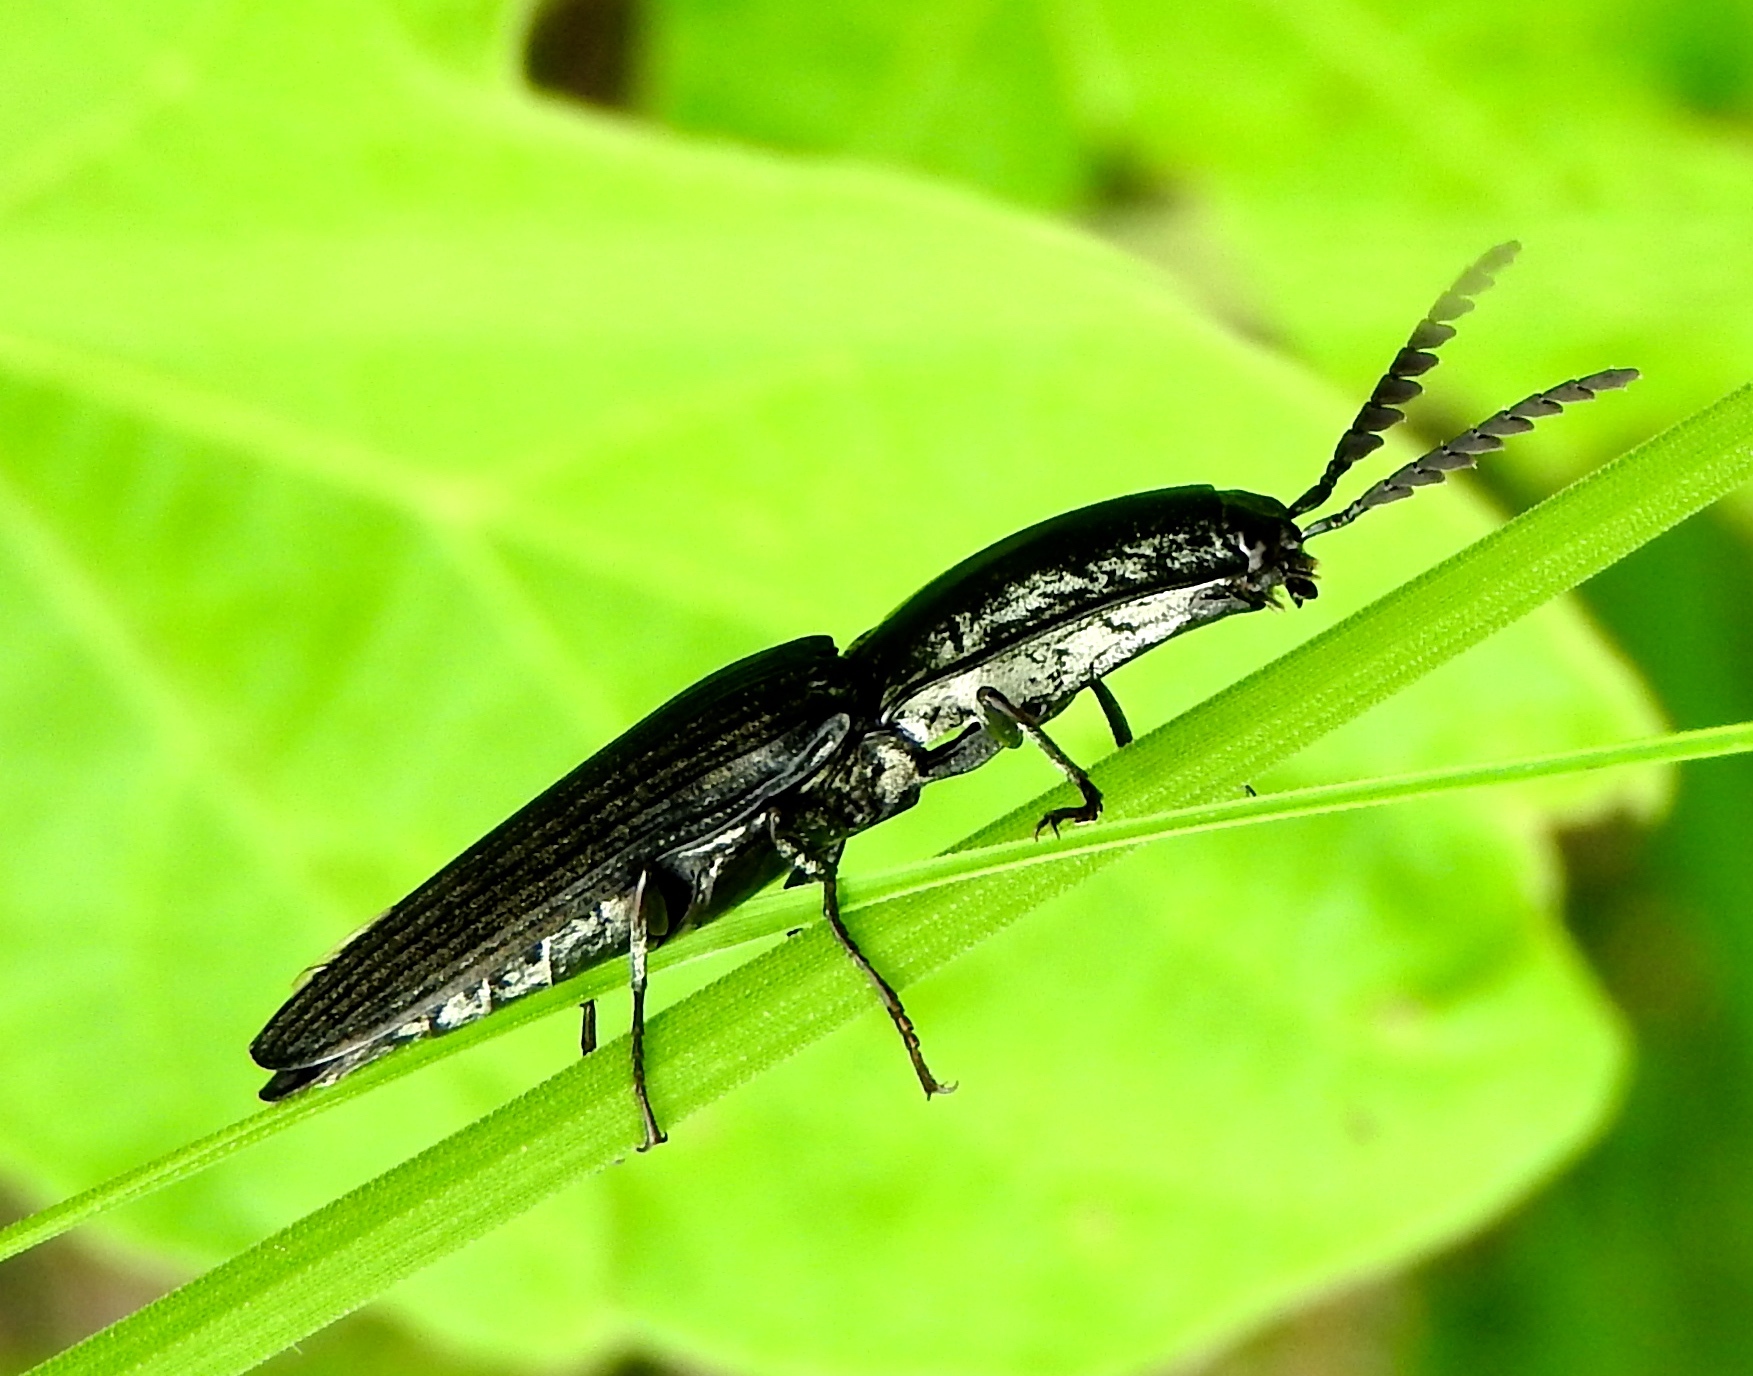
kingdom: Animalia
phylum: Arthropoda
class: Insecta
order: Coleoptera
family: Elateridae
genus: Chalcolepidius
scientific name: Chalcolepidius
